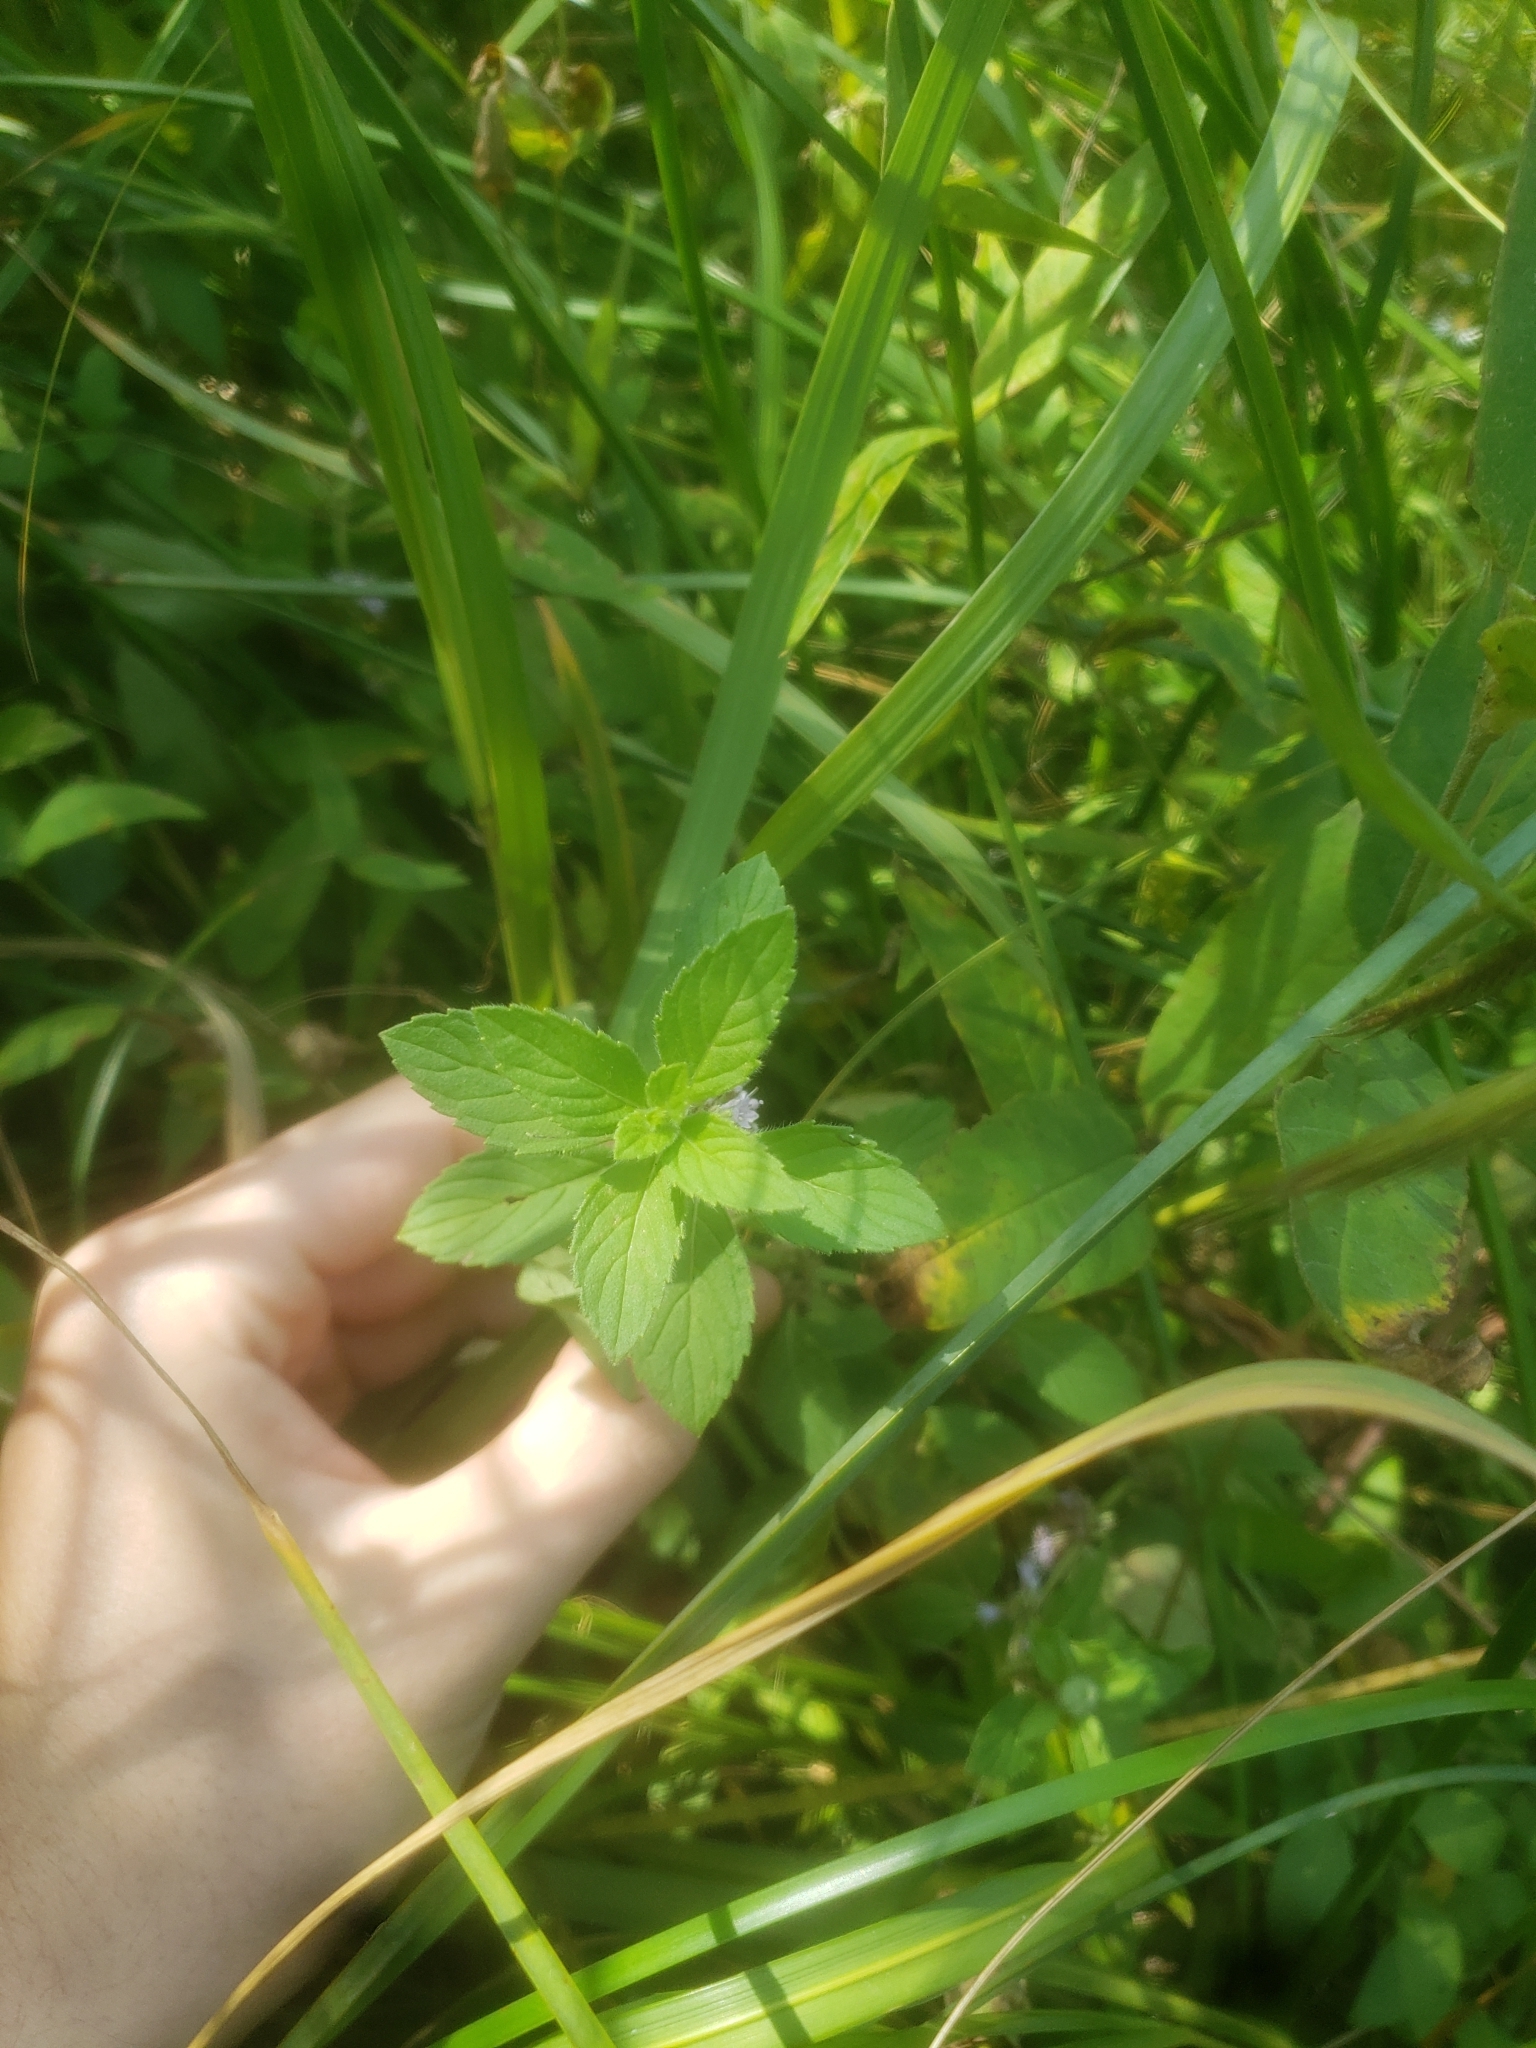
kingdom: Plantae
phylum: Tracheophyta
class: Magnoliopsida
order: Lamiales
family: Lamiaceae
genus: Mentha
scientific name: Mentha canadensis
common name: American corn mint
